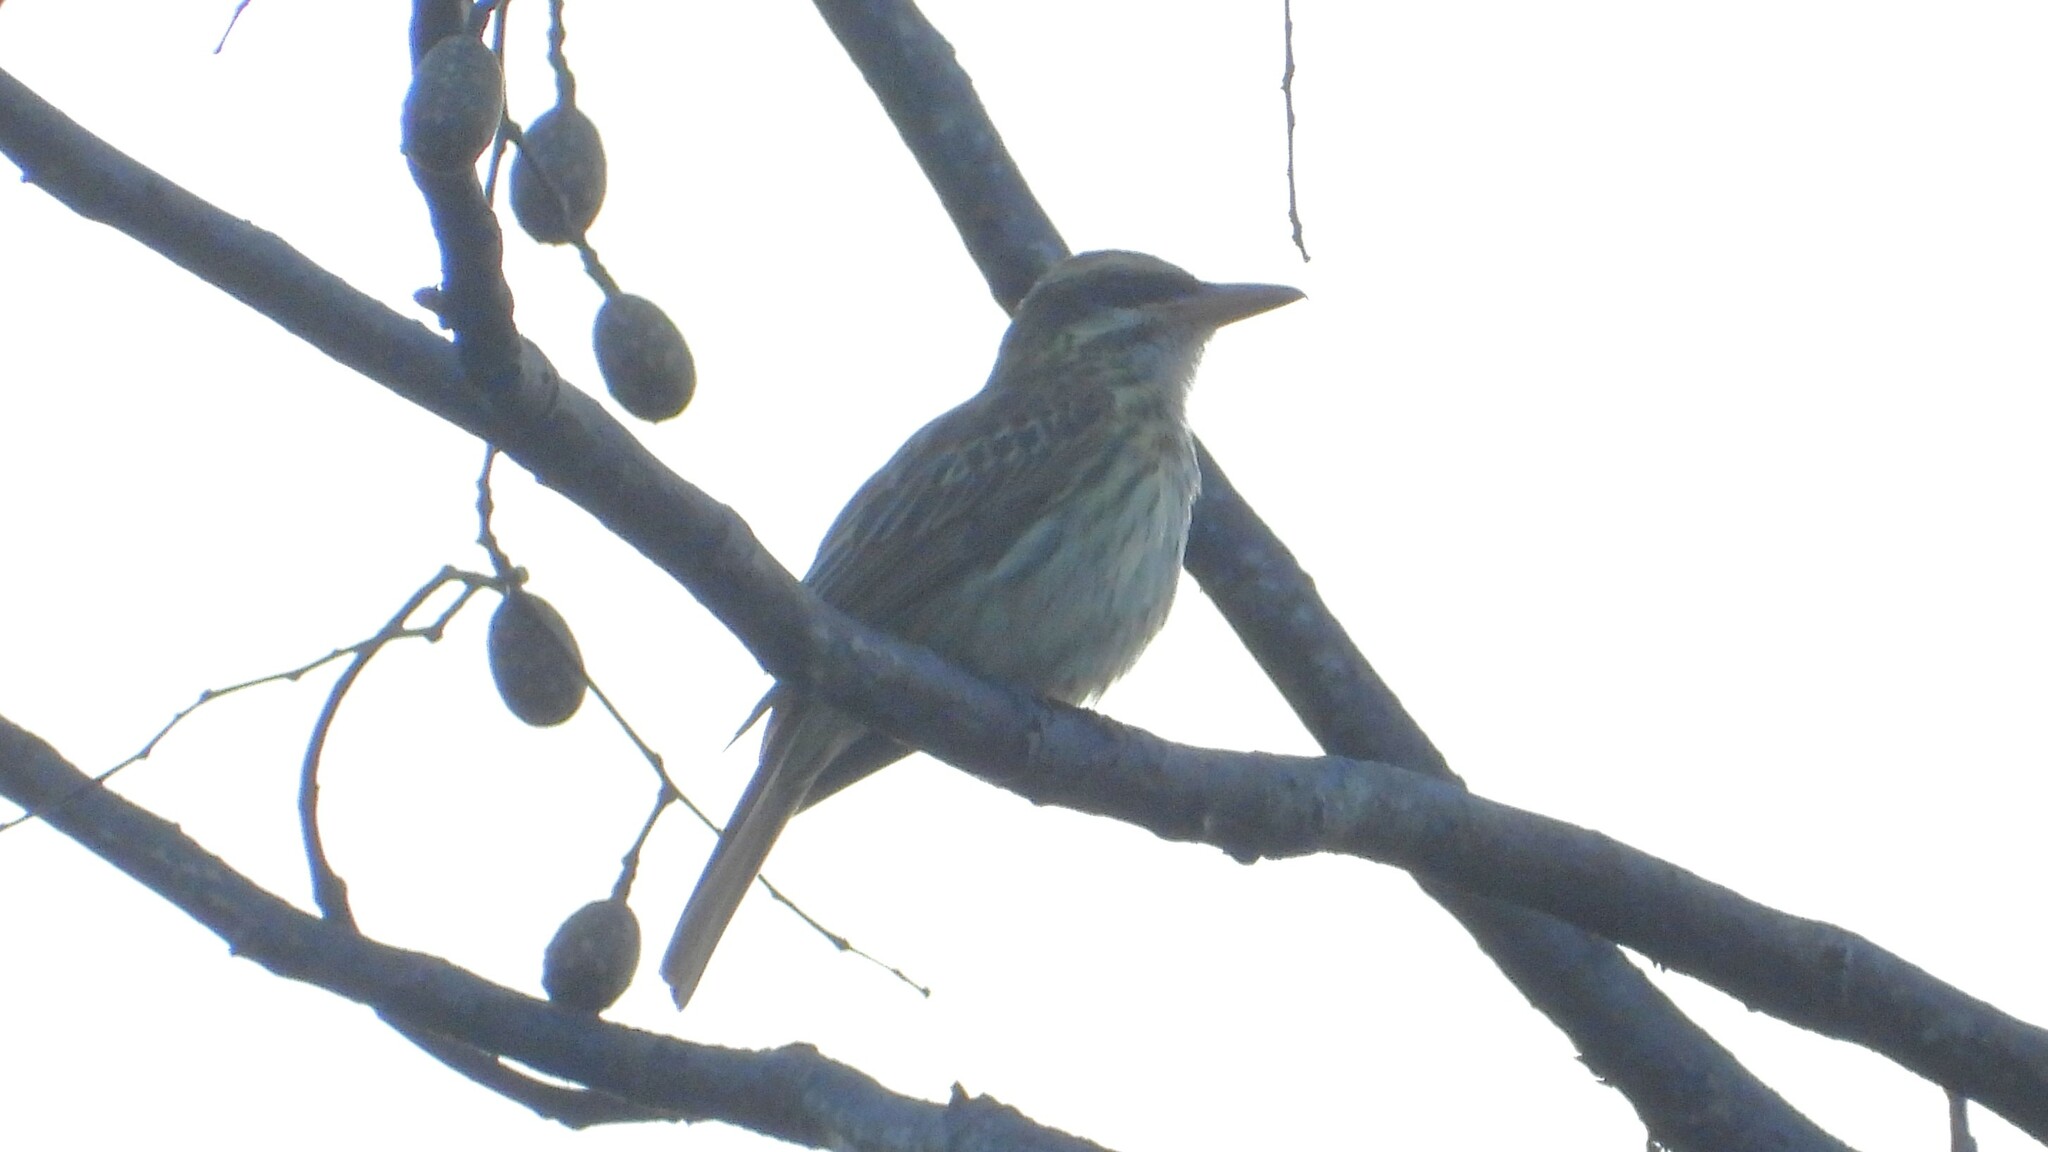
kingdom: Animalia
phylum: Chordata
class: Aves
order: Passeriformes
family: Tyrannidae
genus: Myiodynastes
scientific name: Myiodynastes maculatus
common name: Streaked flycatcher
